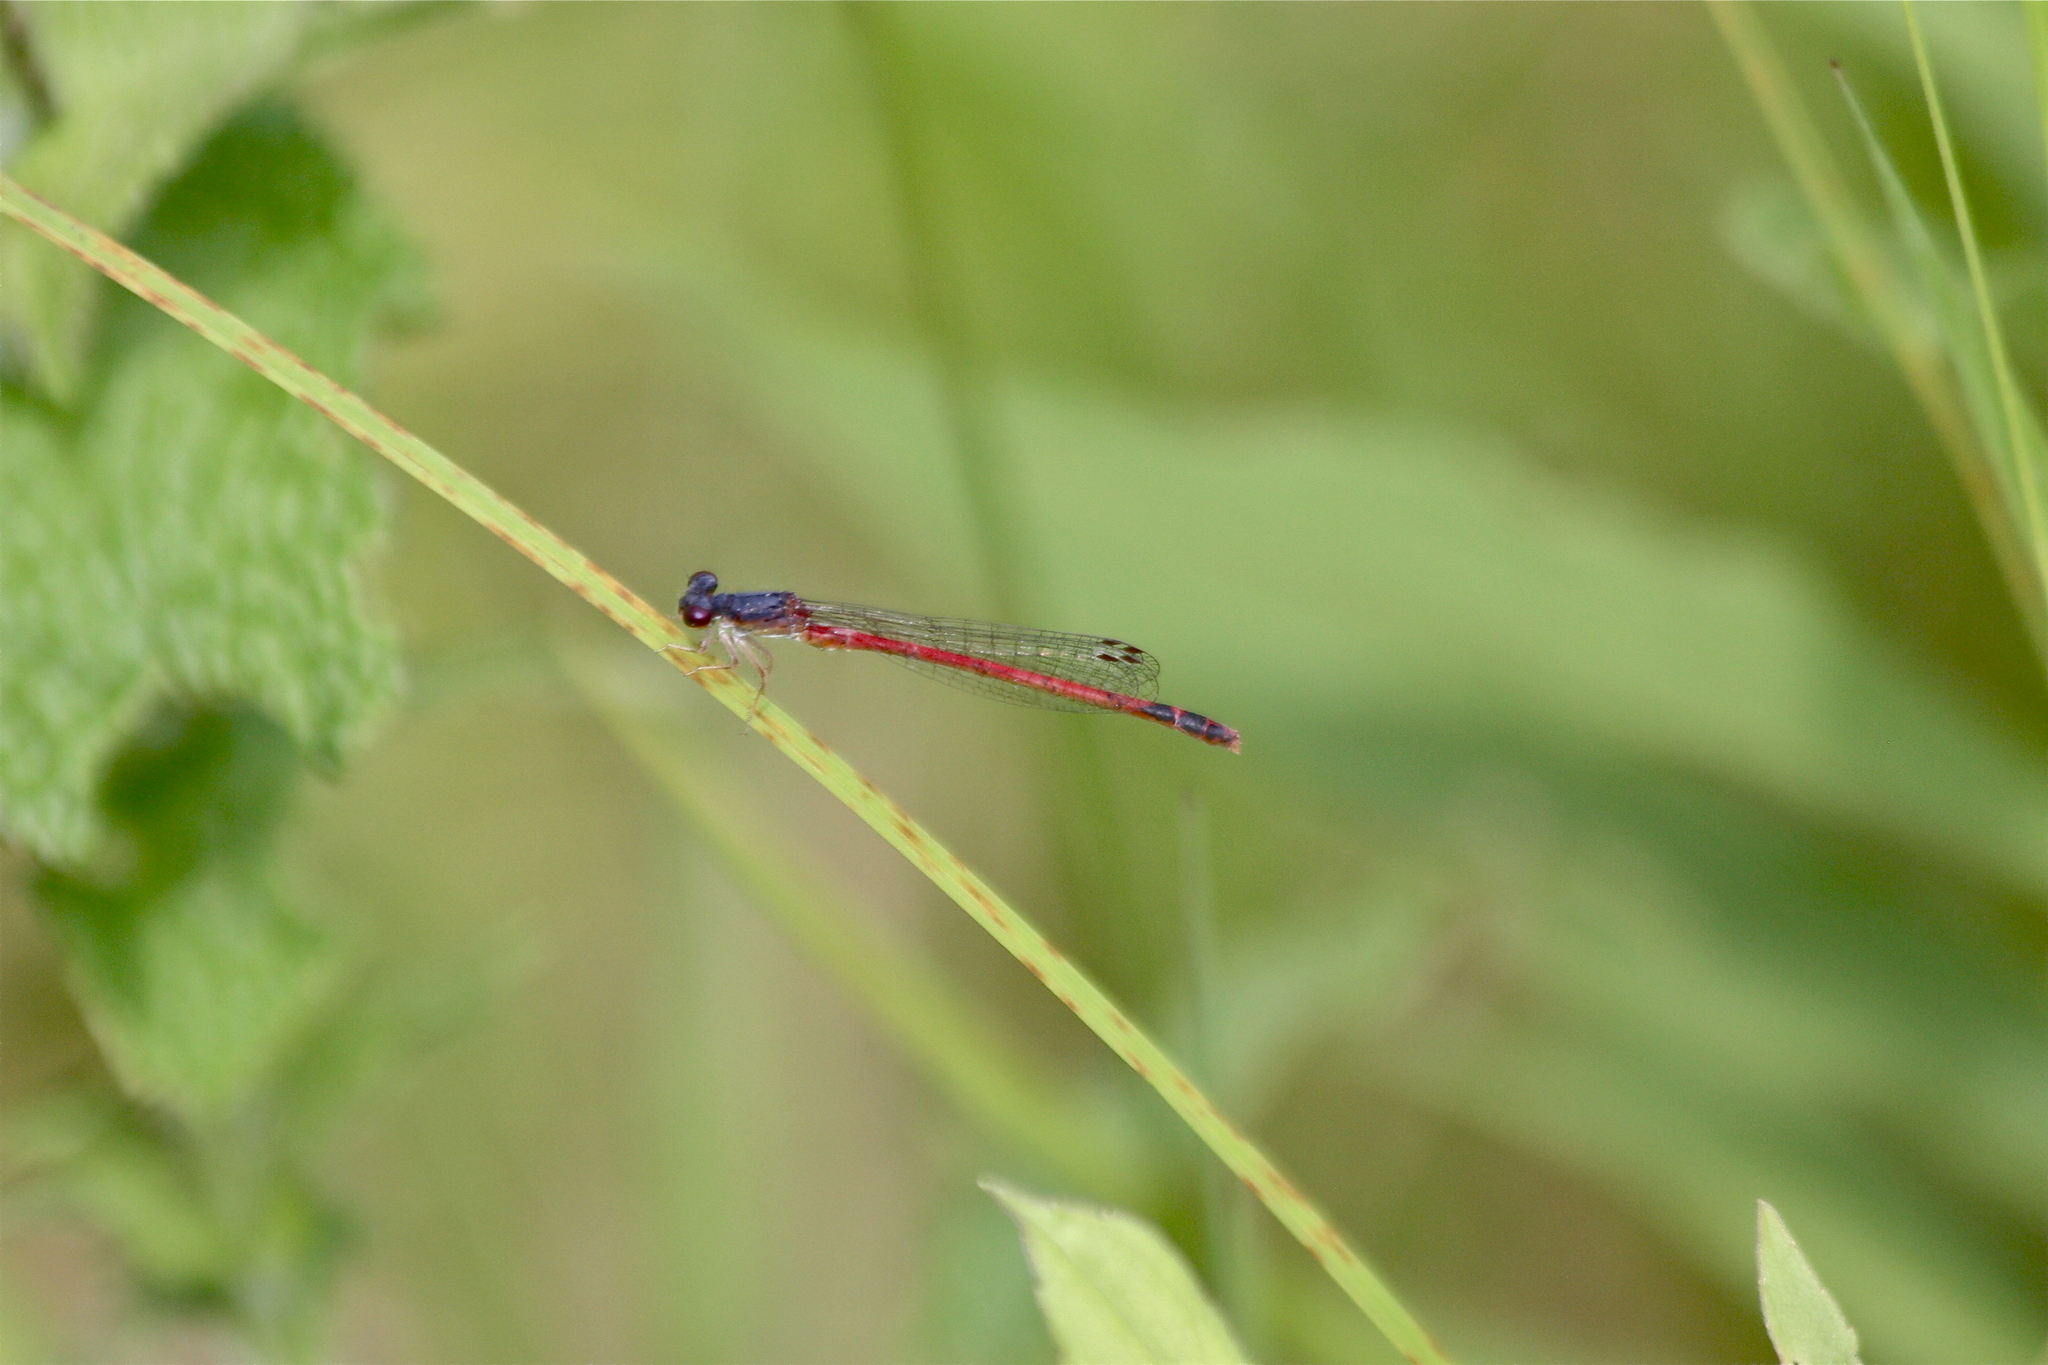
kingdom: Animalia
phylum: Arthropoda
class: Insecta
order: Odonata
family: Coenagrionidae
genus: Amphiagrion
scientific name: Amphiagrion saucium
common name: Eastern red damsel
